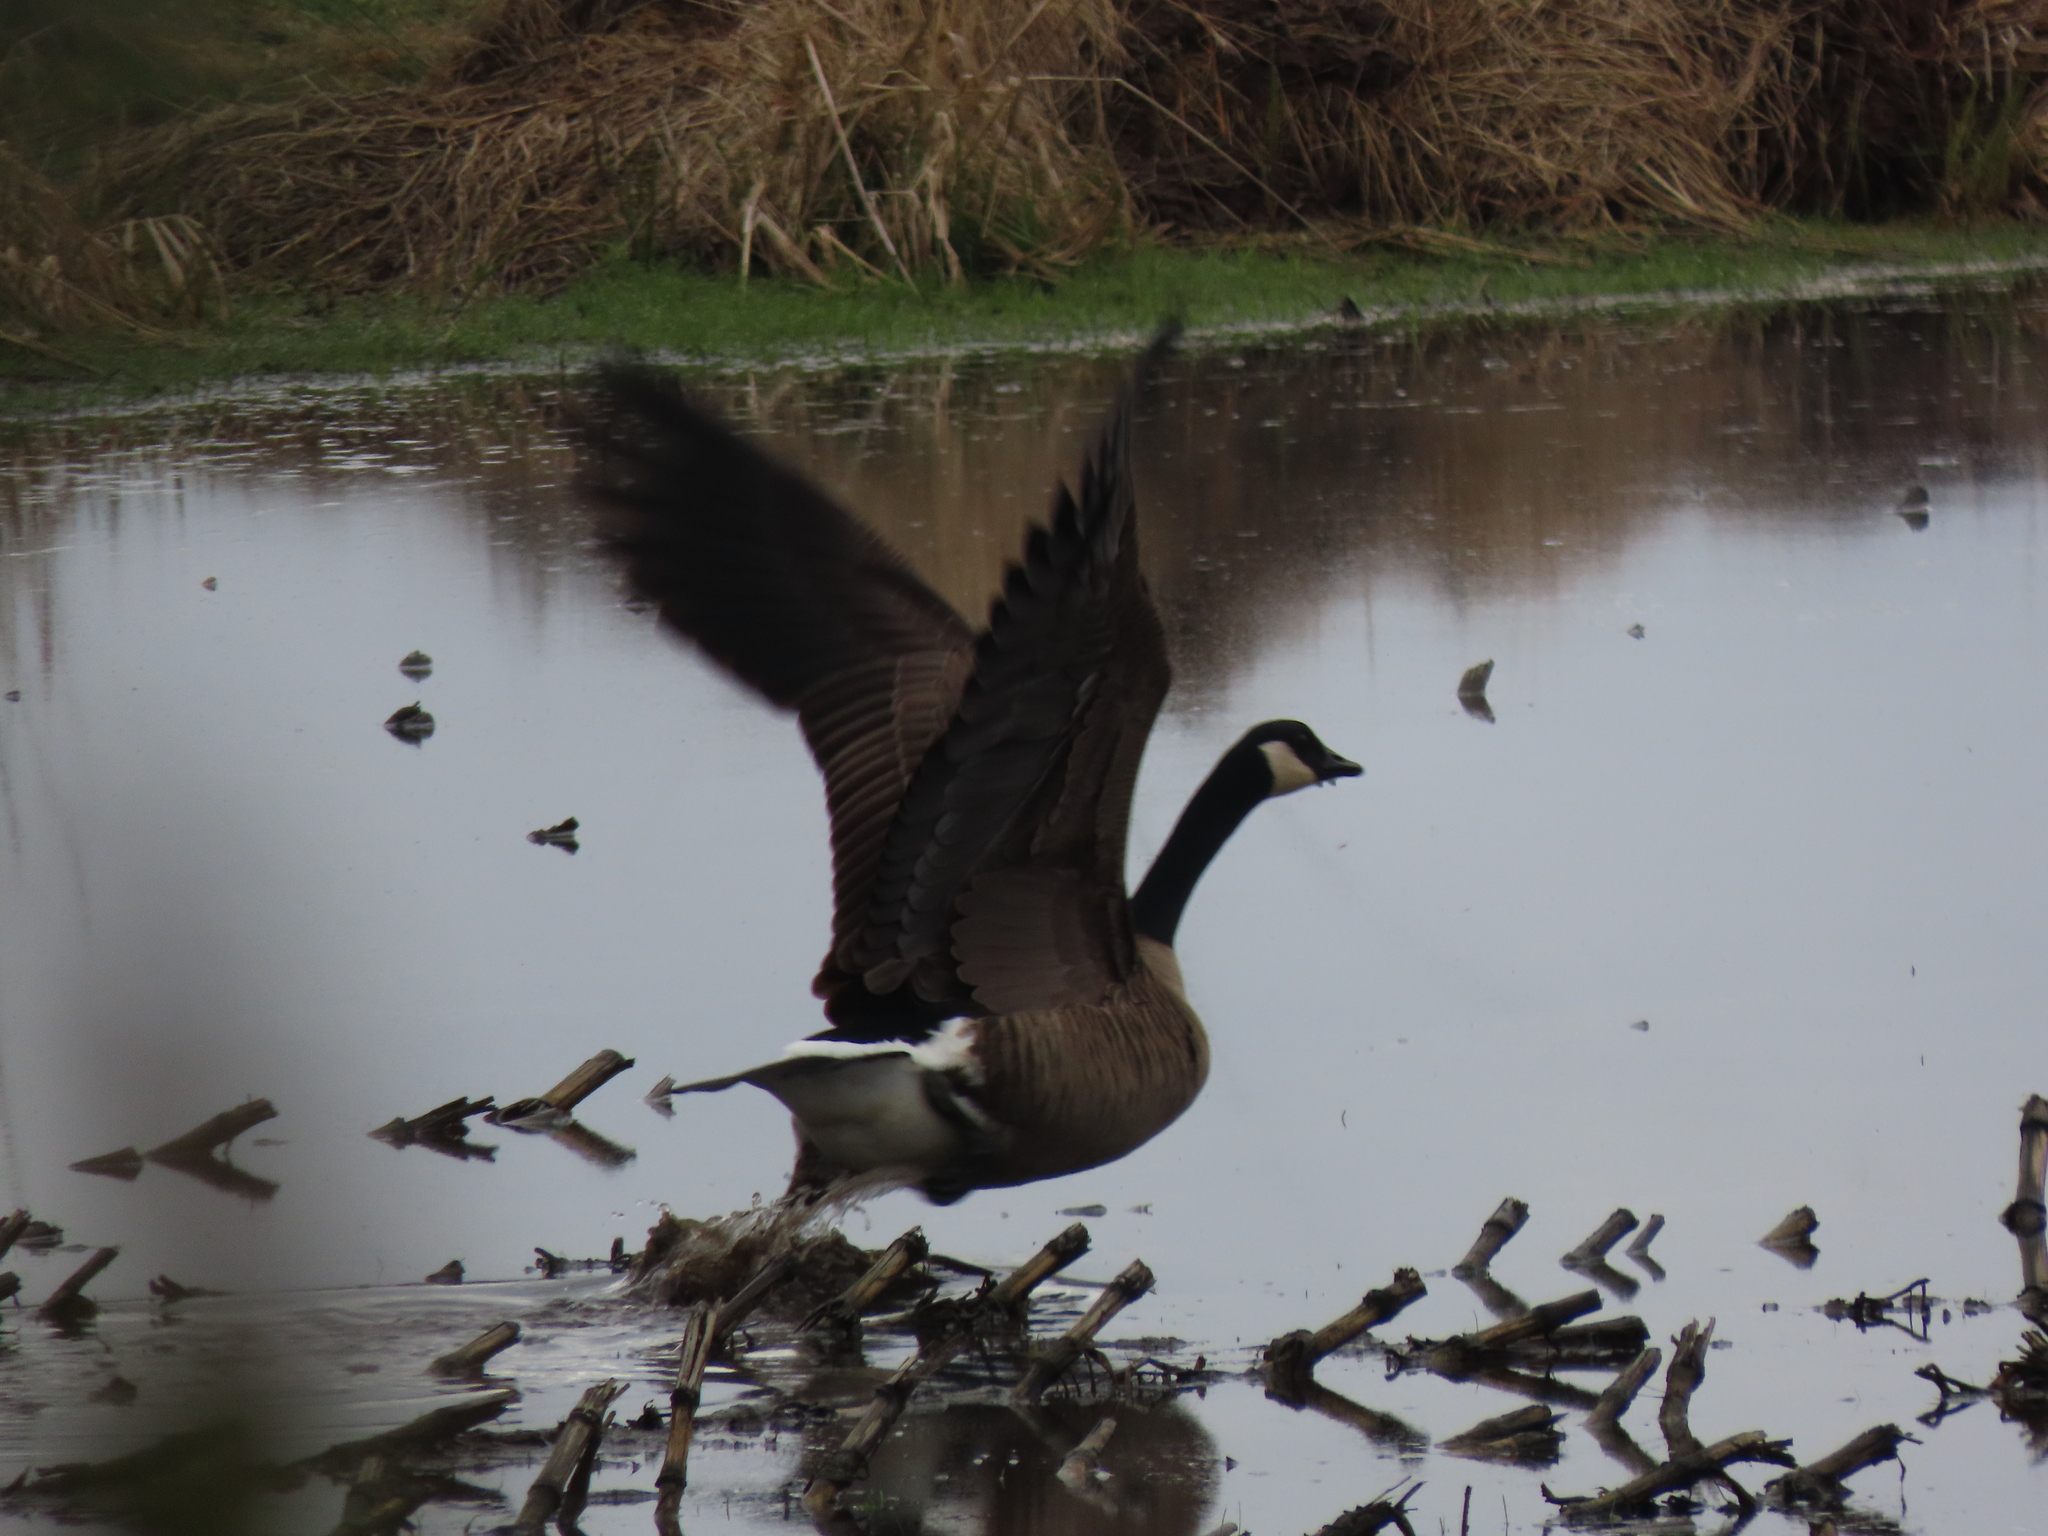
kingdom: Animalia
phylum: Chordata
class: Aves
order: Anseriformes
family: Anatidae
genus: Branta
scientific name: Branta canadensis
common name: Canada goose
